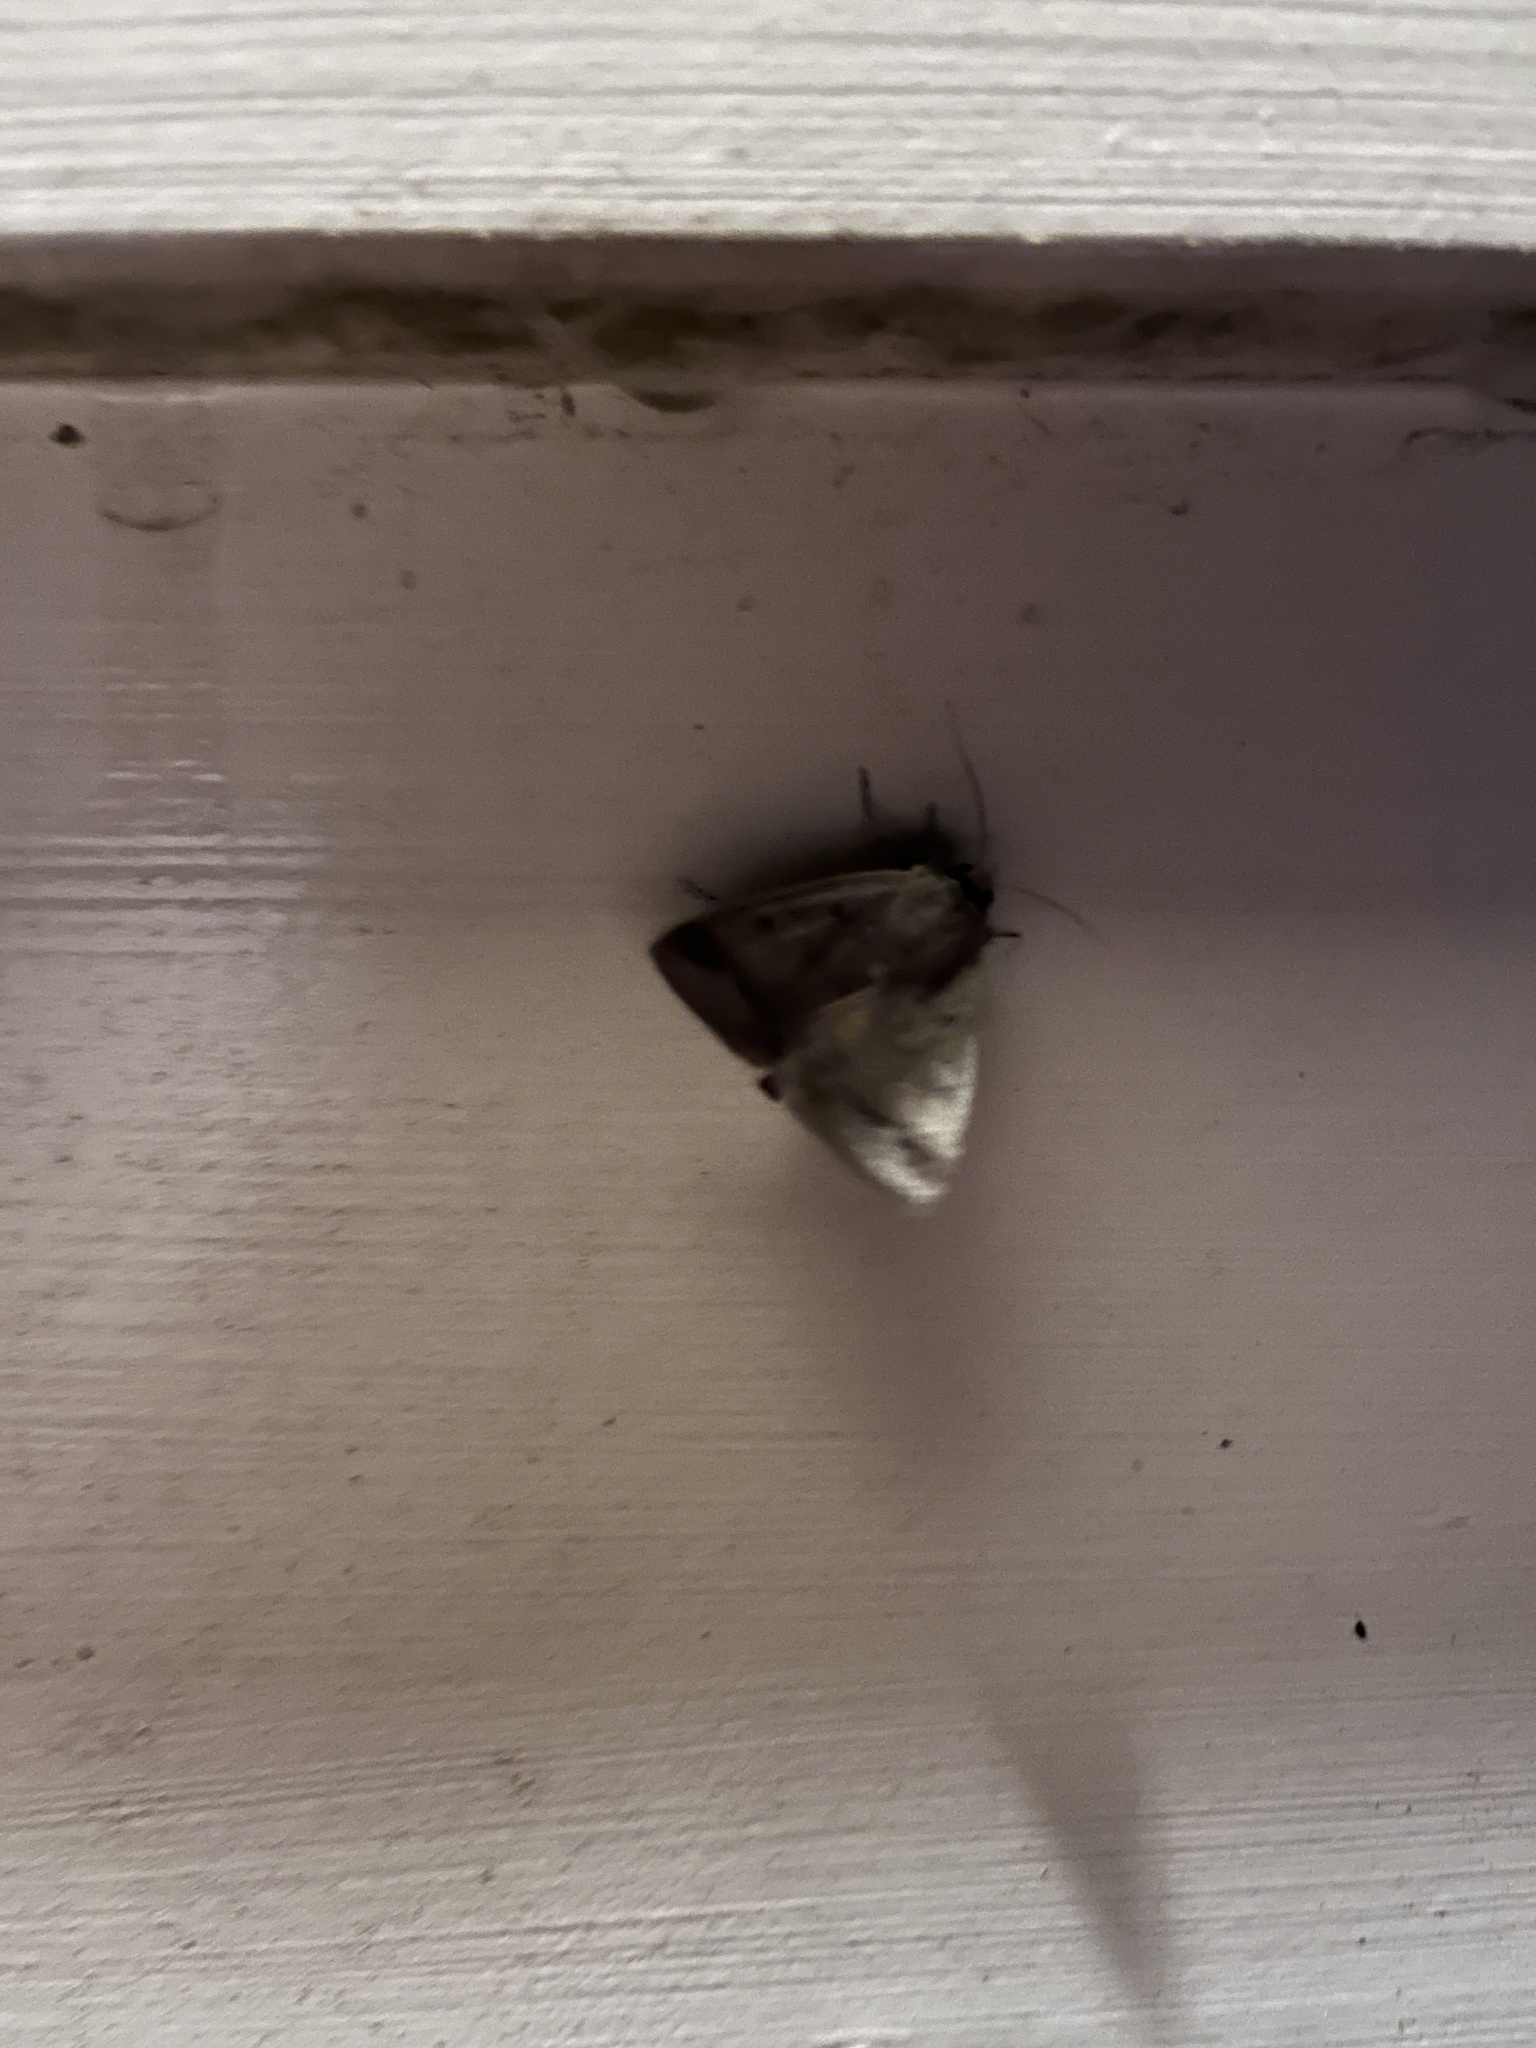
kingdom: Animalia
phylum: Arthropoda
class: Insecta
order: Lepidoptera
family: Erebidae
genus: Pantydia
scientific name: Pantydia sparsa
